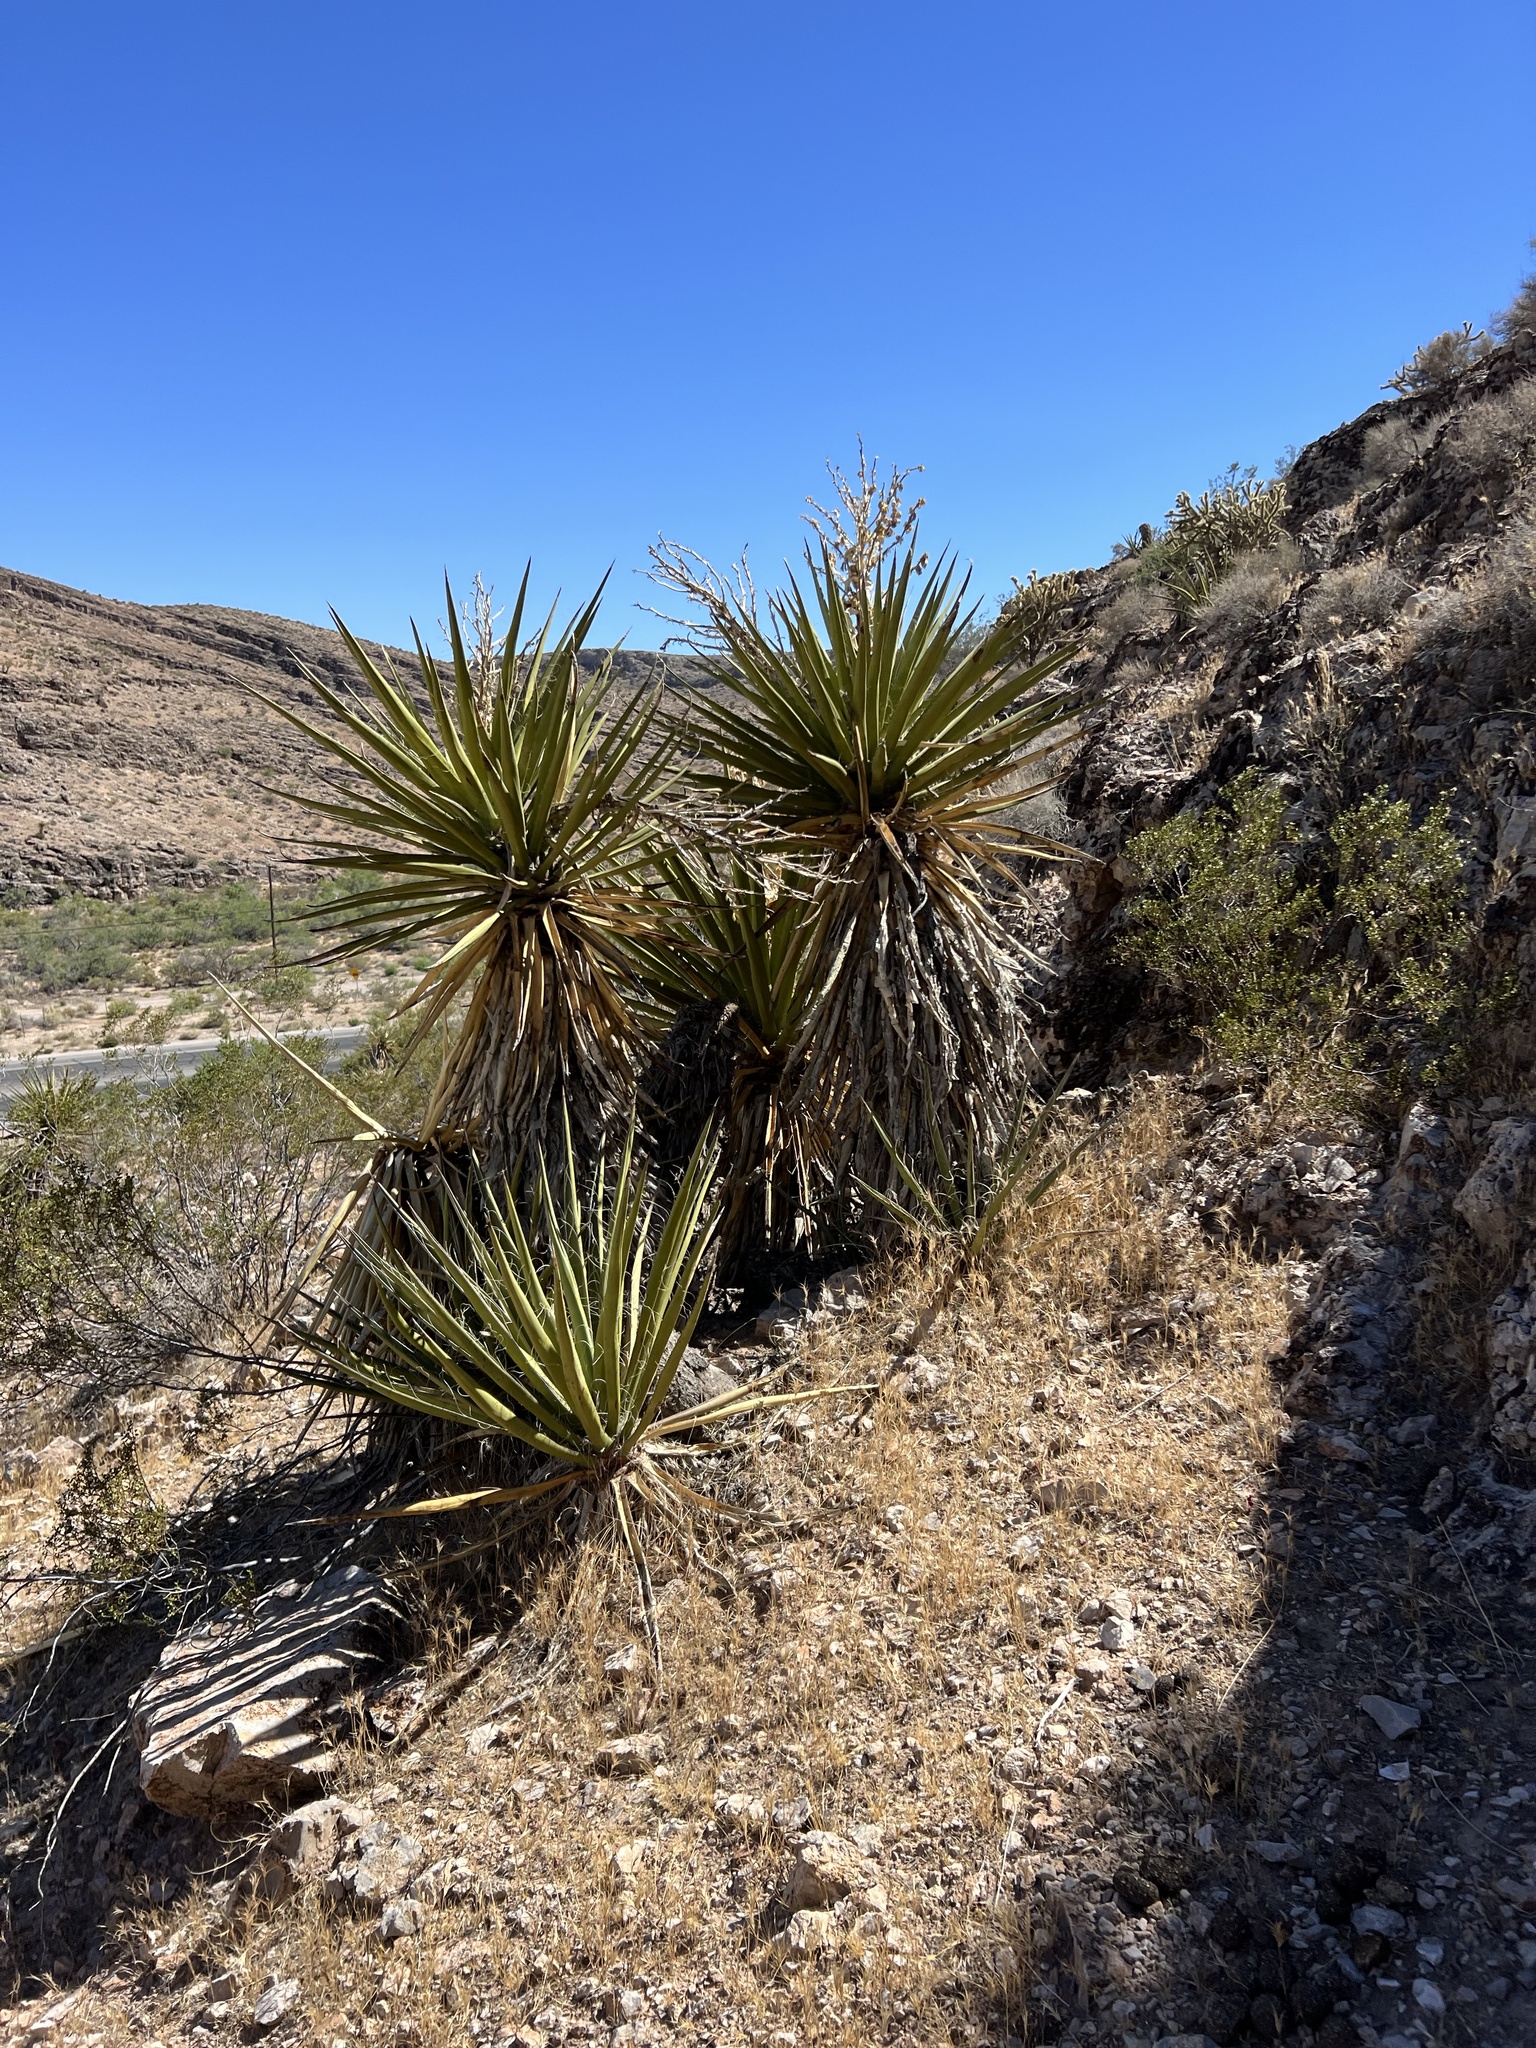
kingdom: Plantae
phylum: Tracheophyta
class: Liliopsida
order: Asparagales
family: Asparagaceae
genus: Yucca
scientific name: Yucca schidigera
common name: Mojave yucca
